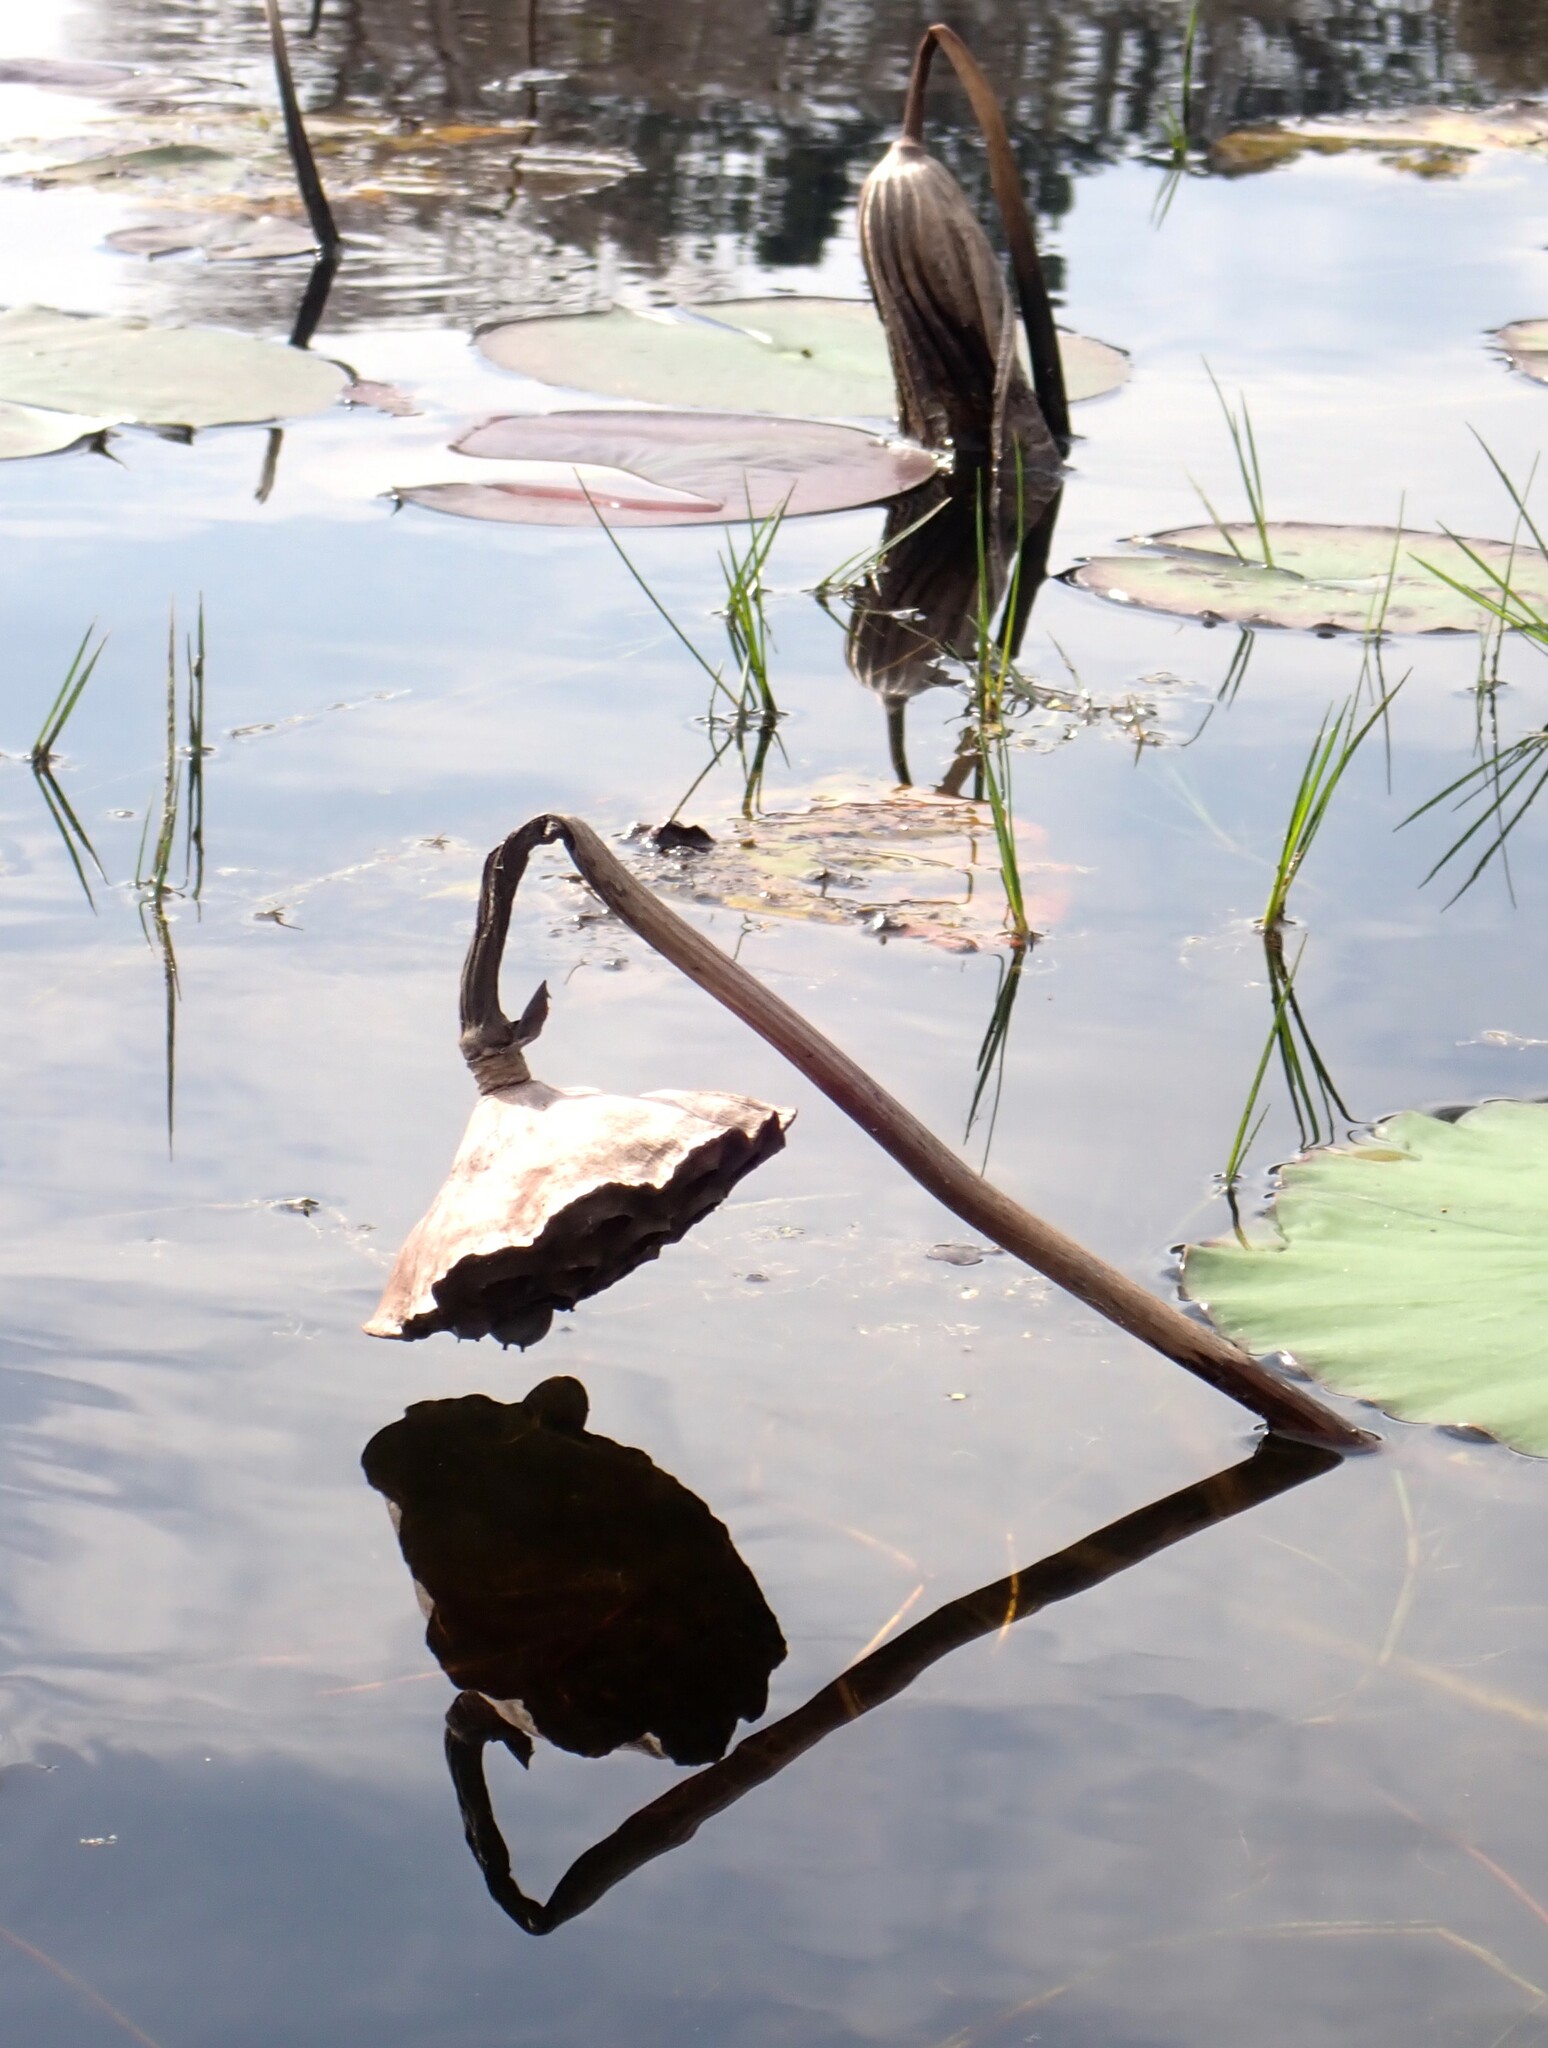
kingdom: Plantae
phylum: Tracheophyta
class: Magnoliopsida
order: Proteales
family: Nelumbonaceae
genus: Nelumbo
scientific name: Nelumbo lutea
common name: American lotus
